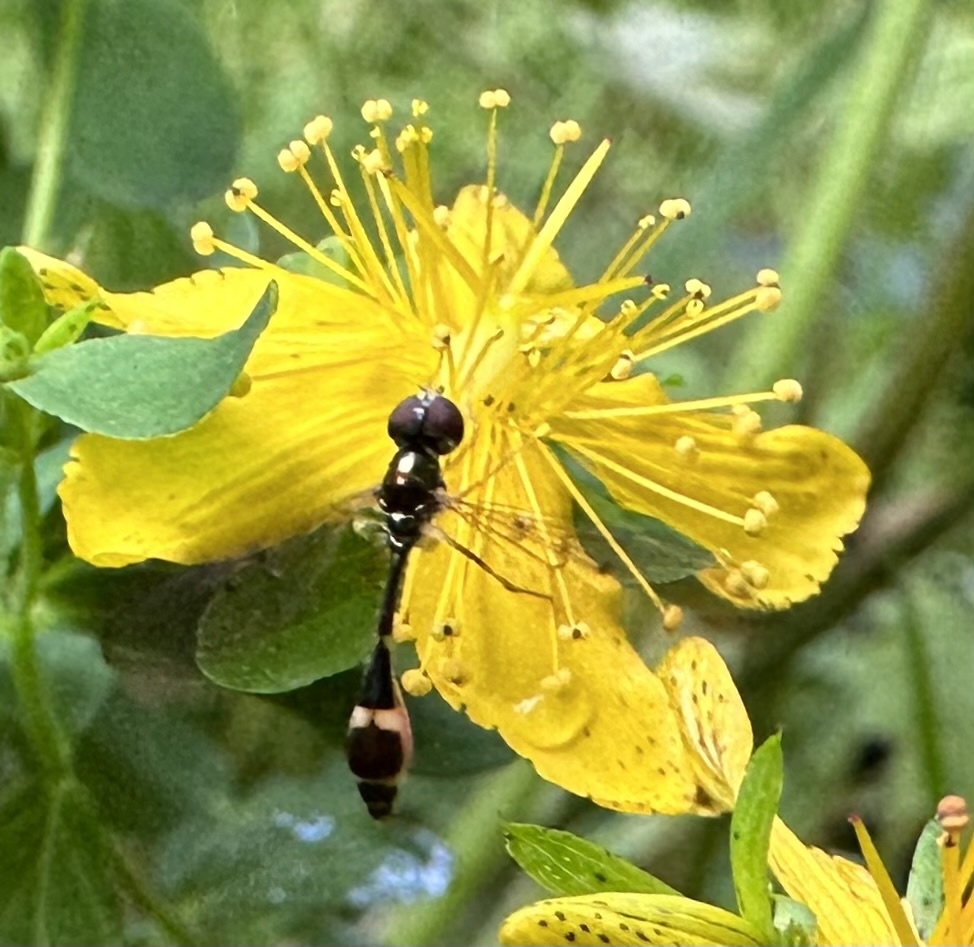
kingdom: Animalia
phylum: Arthropoda
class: Insecta
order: Diptera
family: Syrphidae
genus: Baccha
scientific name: Baccha elongata
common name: Common dainty
